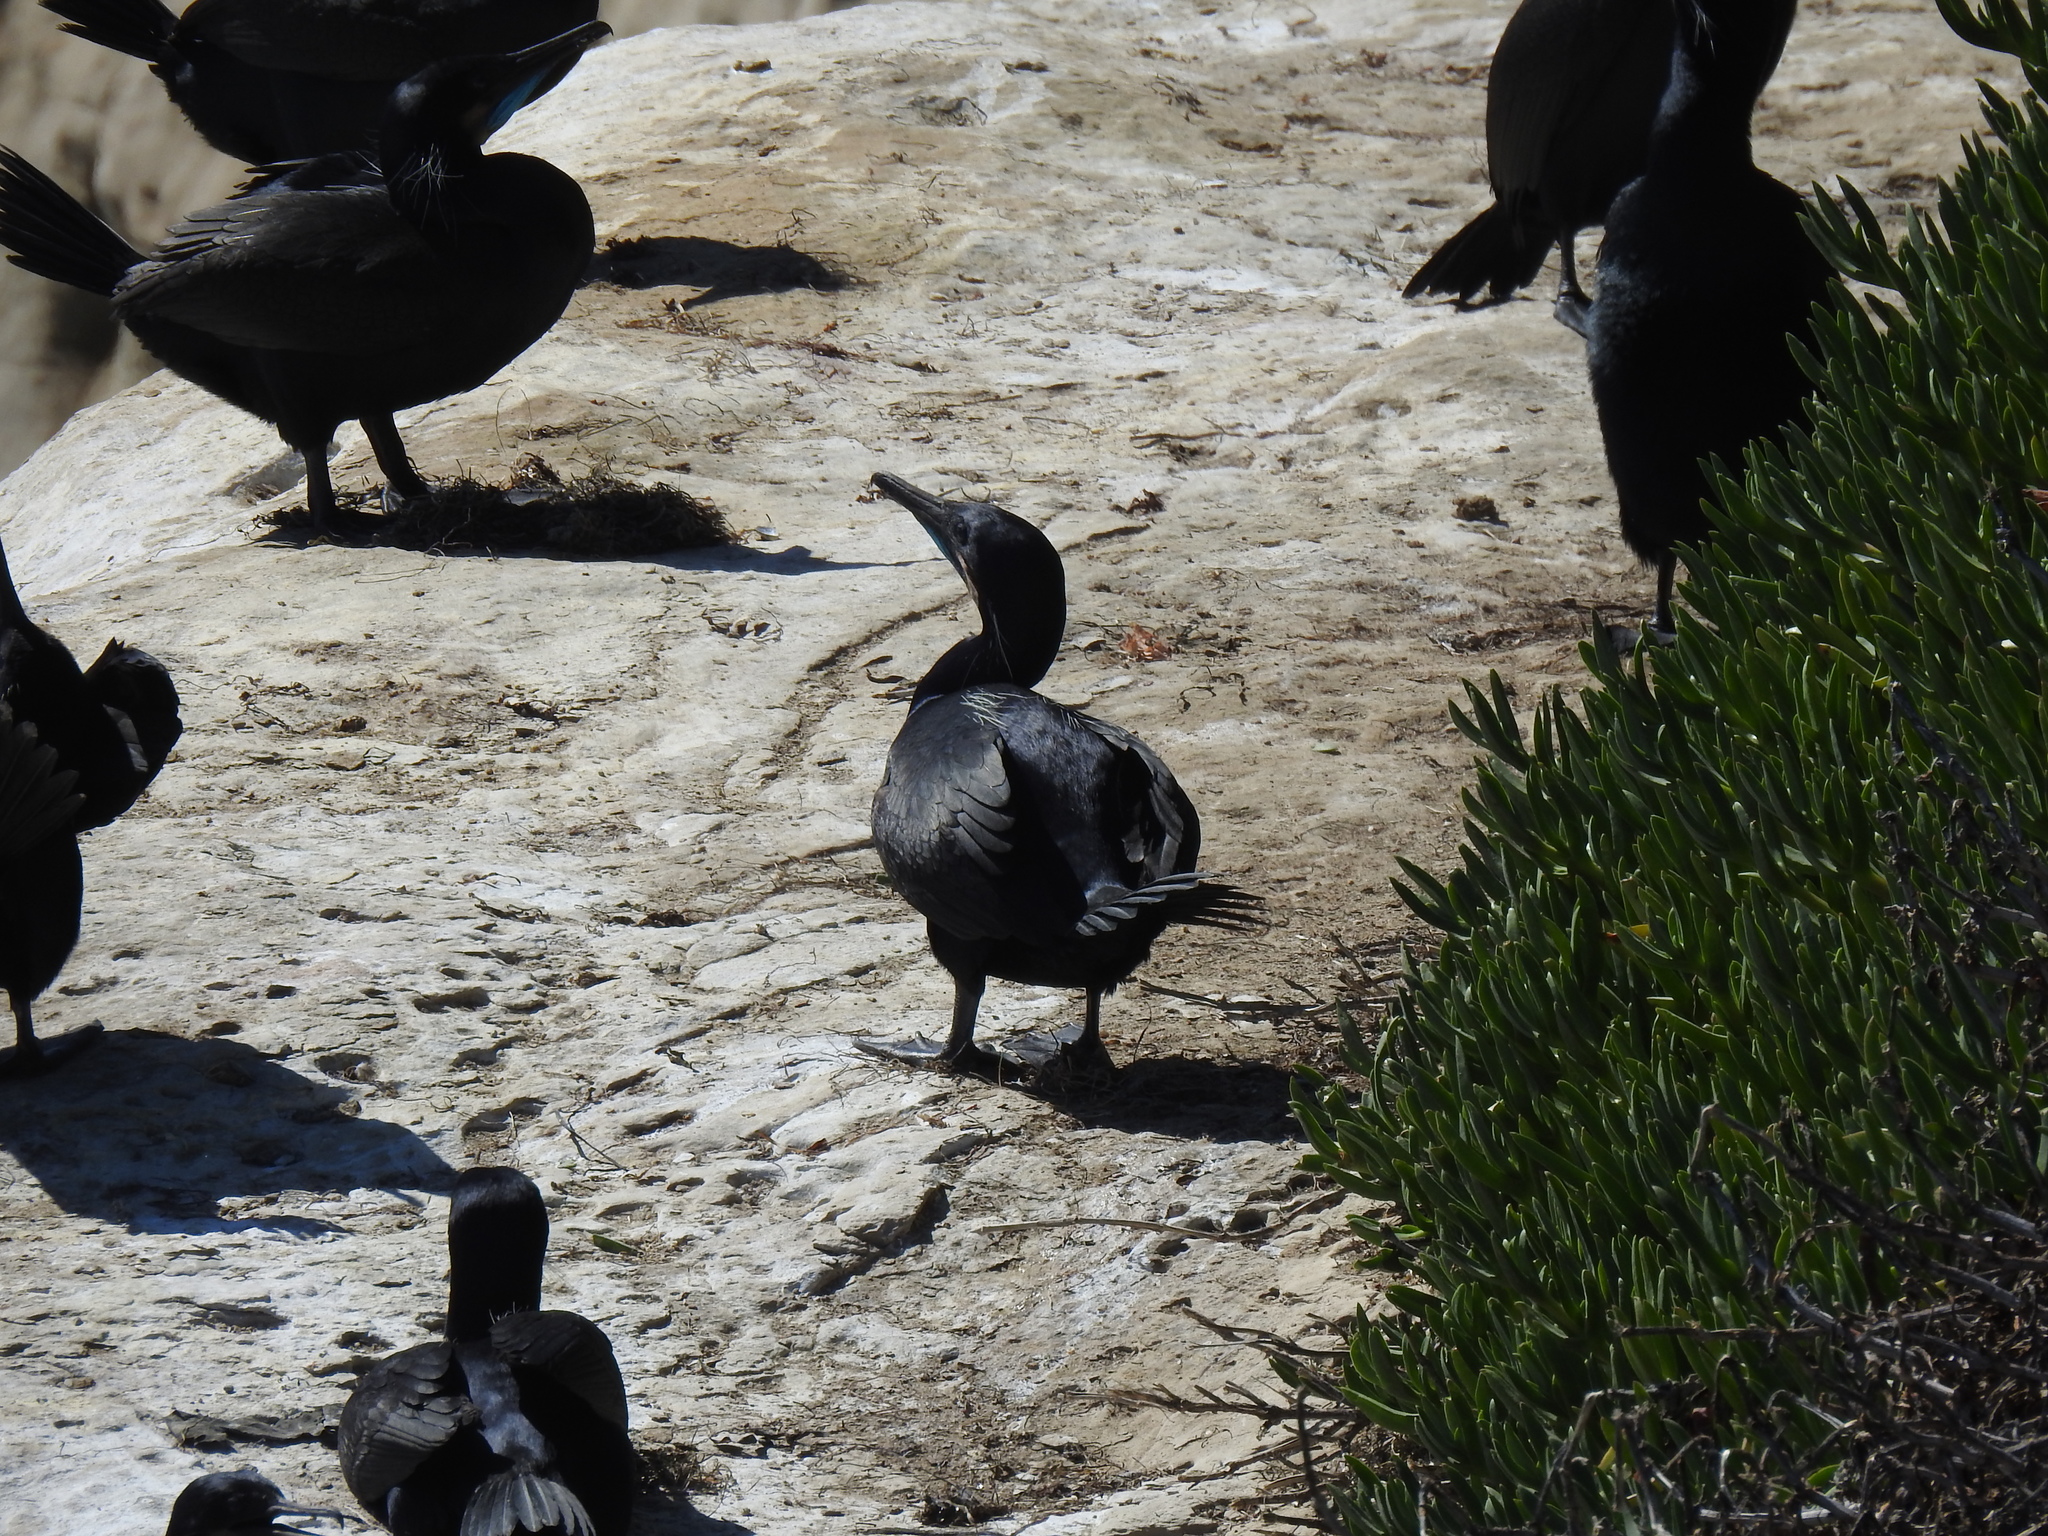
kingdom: Animalia
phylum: Chordata
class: Aves
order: Suliformes
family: Phalacrocoracidae
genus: Urile
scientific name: Urile penicillatus
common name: Brandt's cormorant
